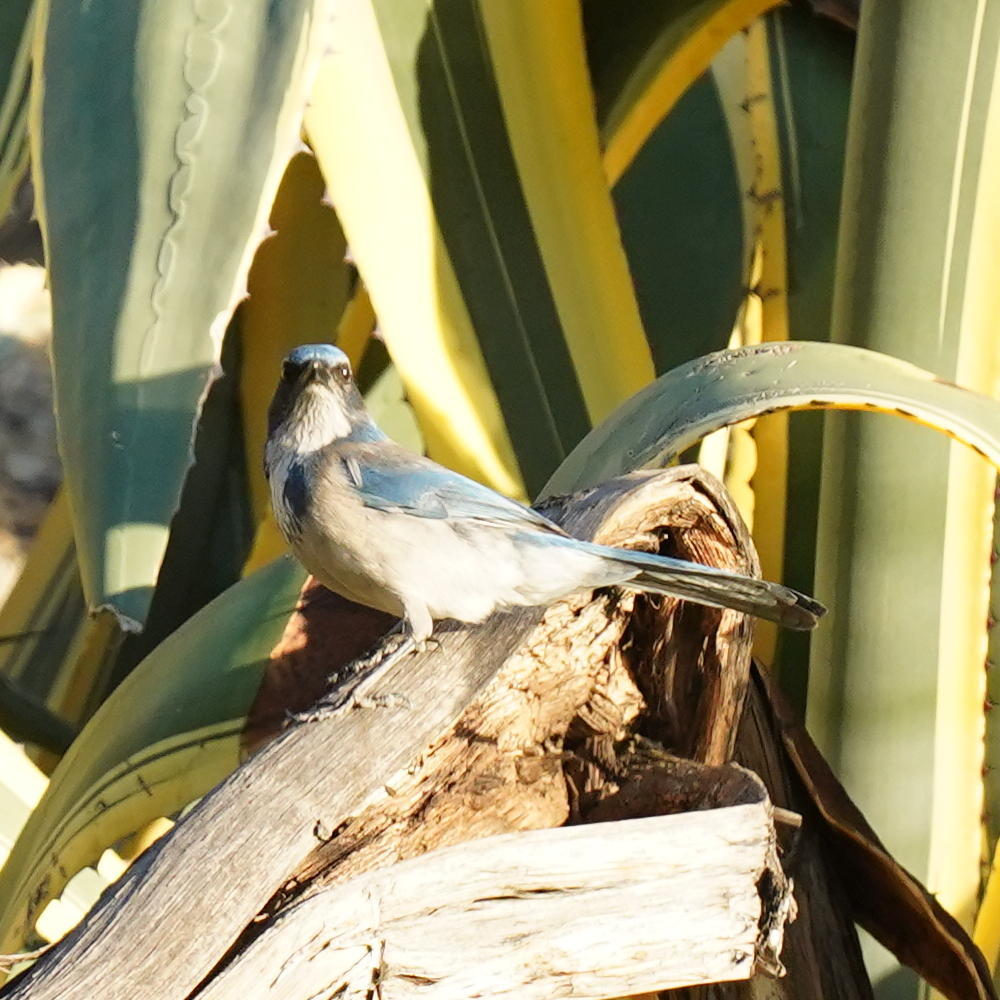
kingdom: Animalia
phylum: Chordata
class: Aves
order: Passeriformes
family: Corvidae
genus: Aphelocoma
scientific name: Aphelocoma californica
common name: California scrub-jay
